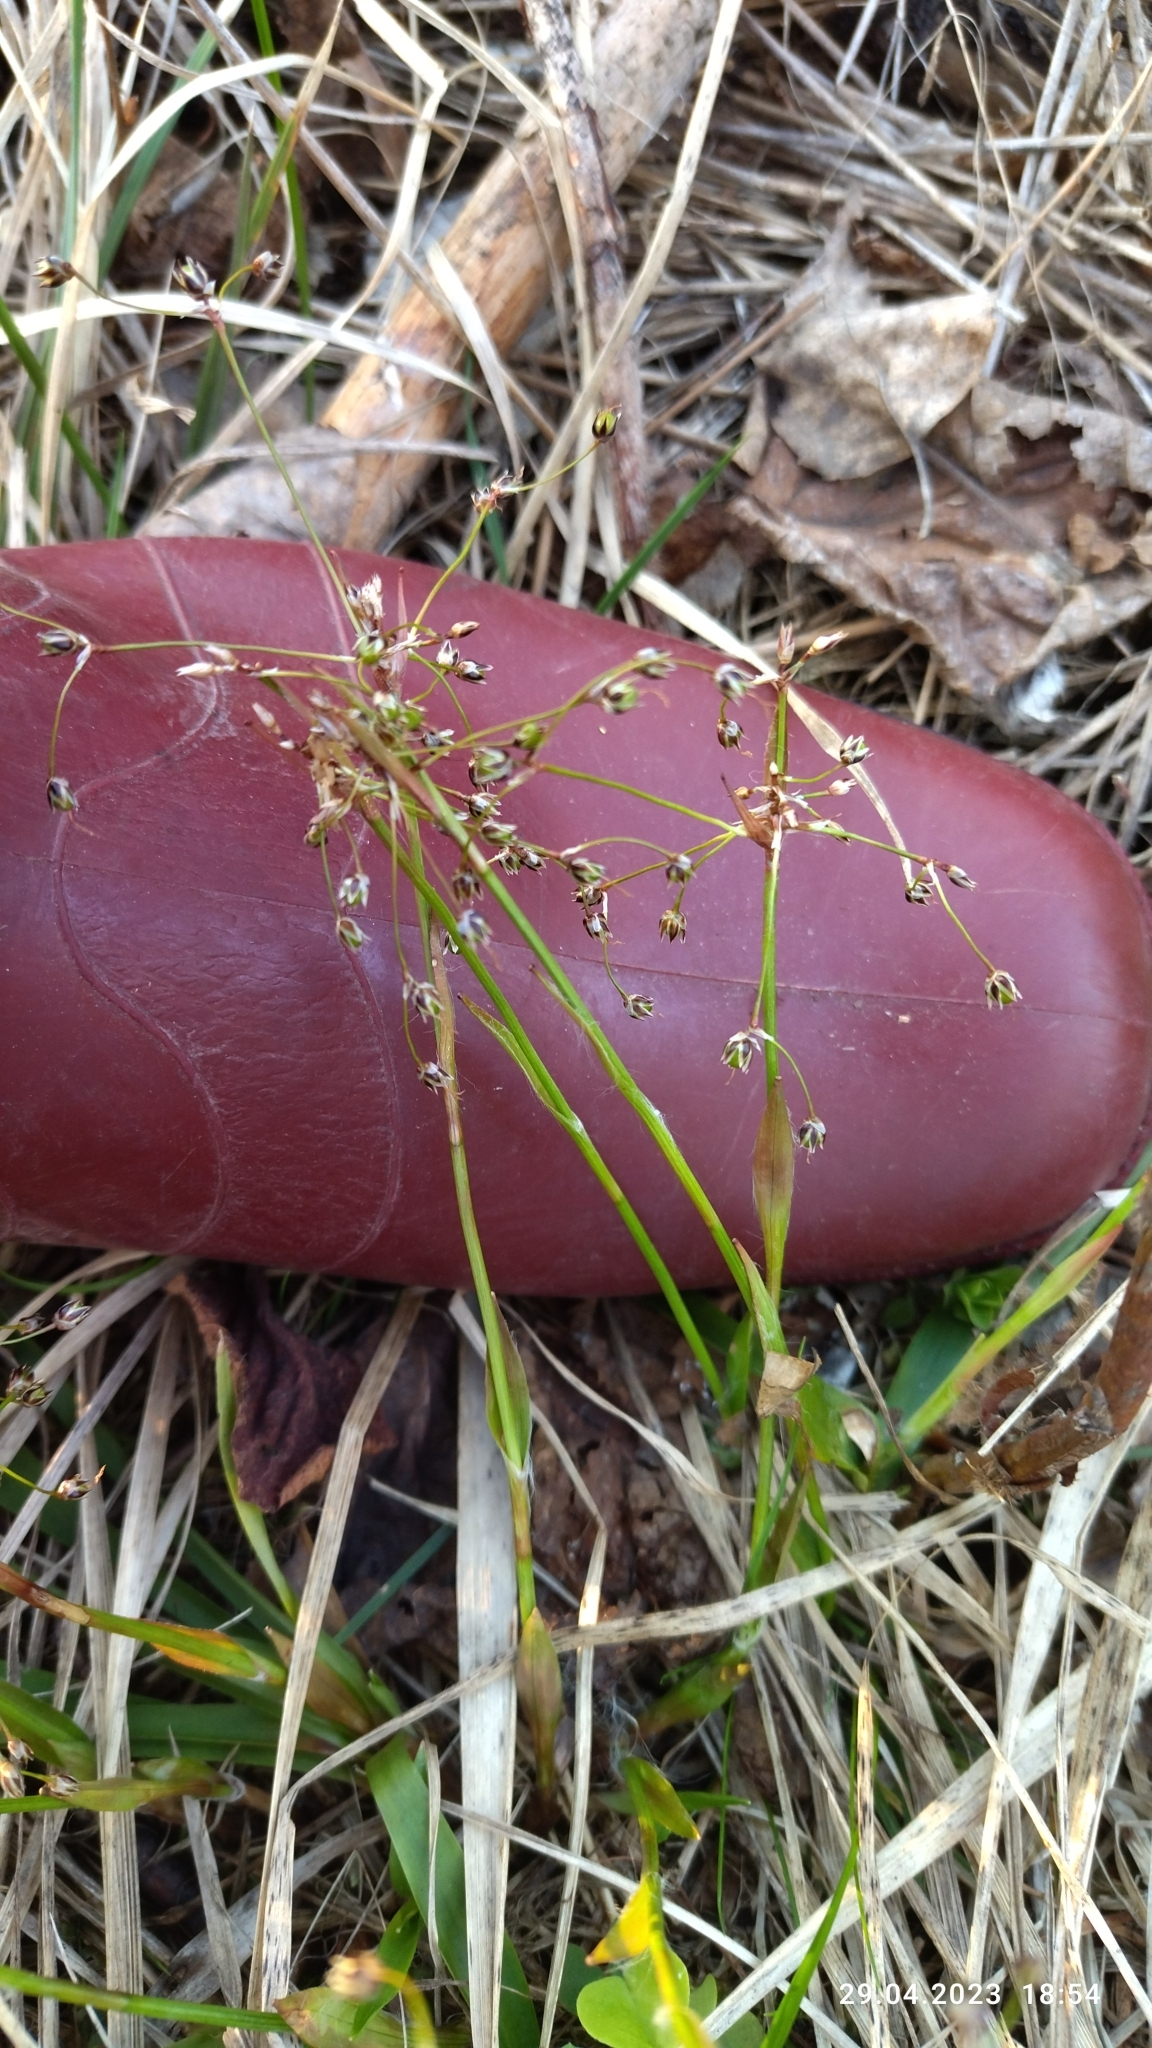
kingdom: Plantae
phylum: Tracheophyta
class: Liliopsida
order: Poales
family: Juncaceae
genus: Luzula
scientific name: Luzula pilosa
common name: Hairy wood-rush
